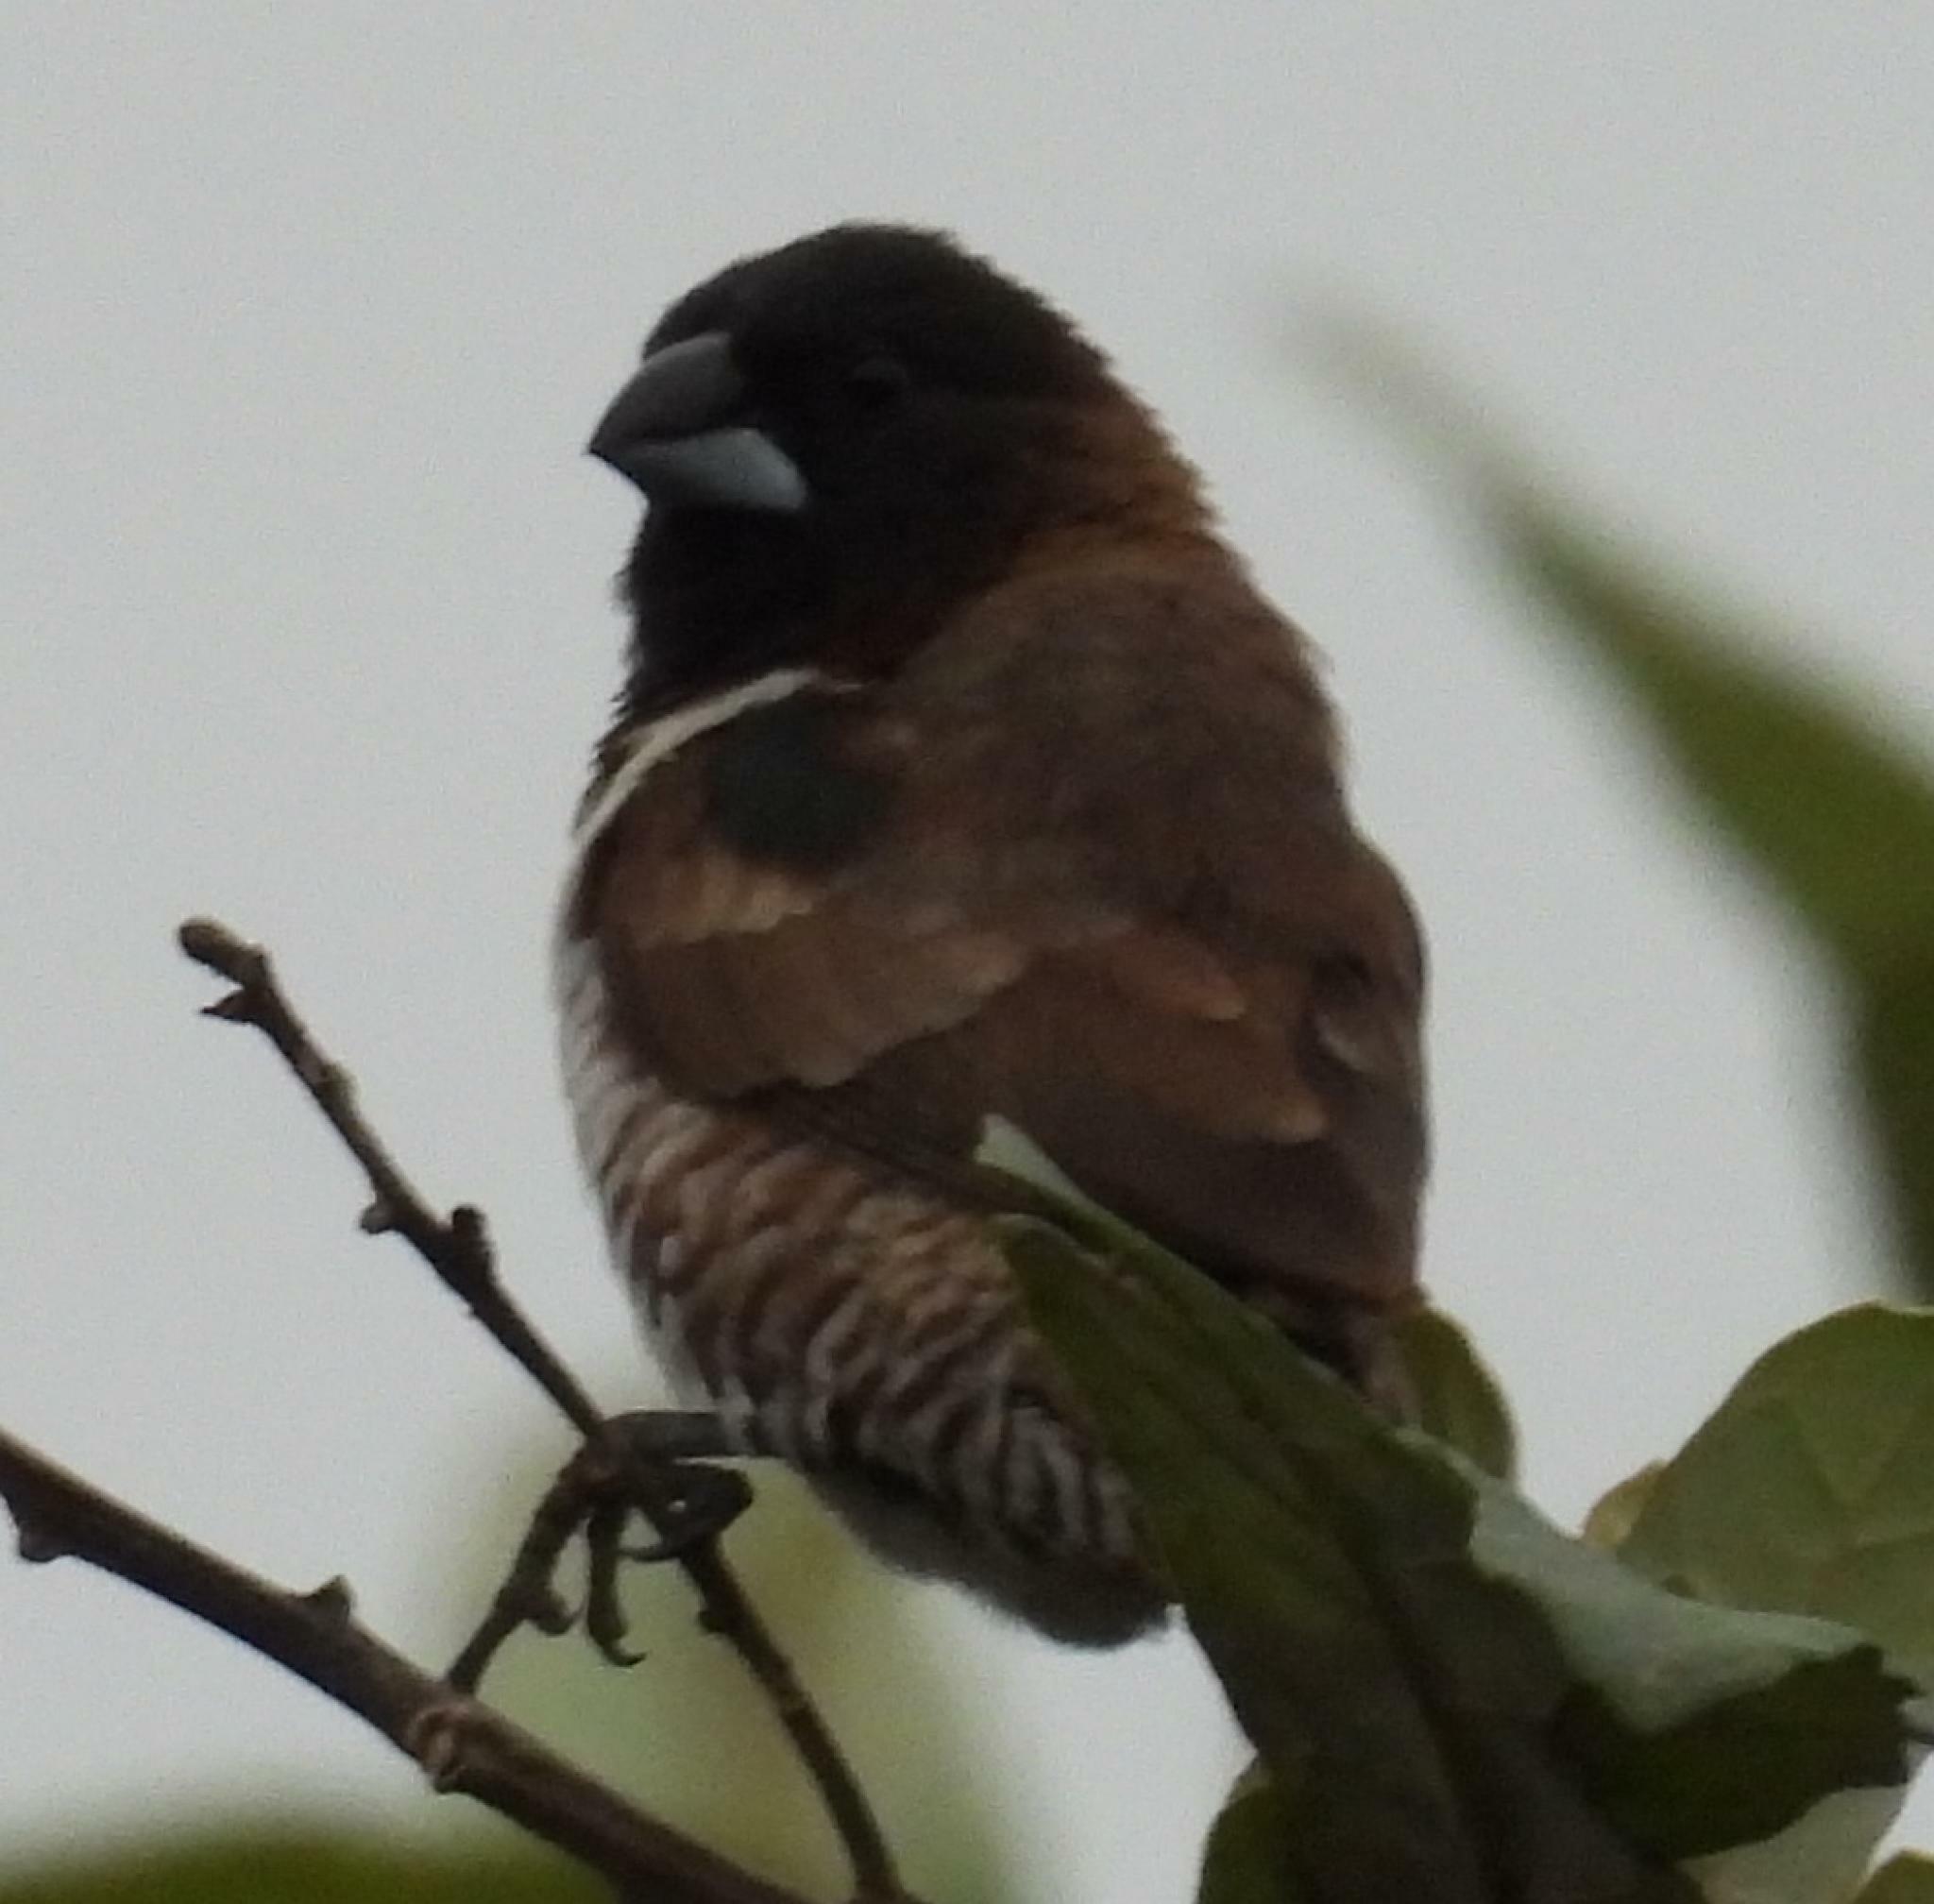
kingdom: Animalia
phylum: Chordata
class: Aves
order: Passeriformes
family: Estrildidae
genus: Lonchura
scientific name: Lonchura cucullata
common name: Bronze mannikin
